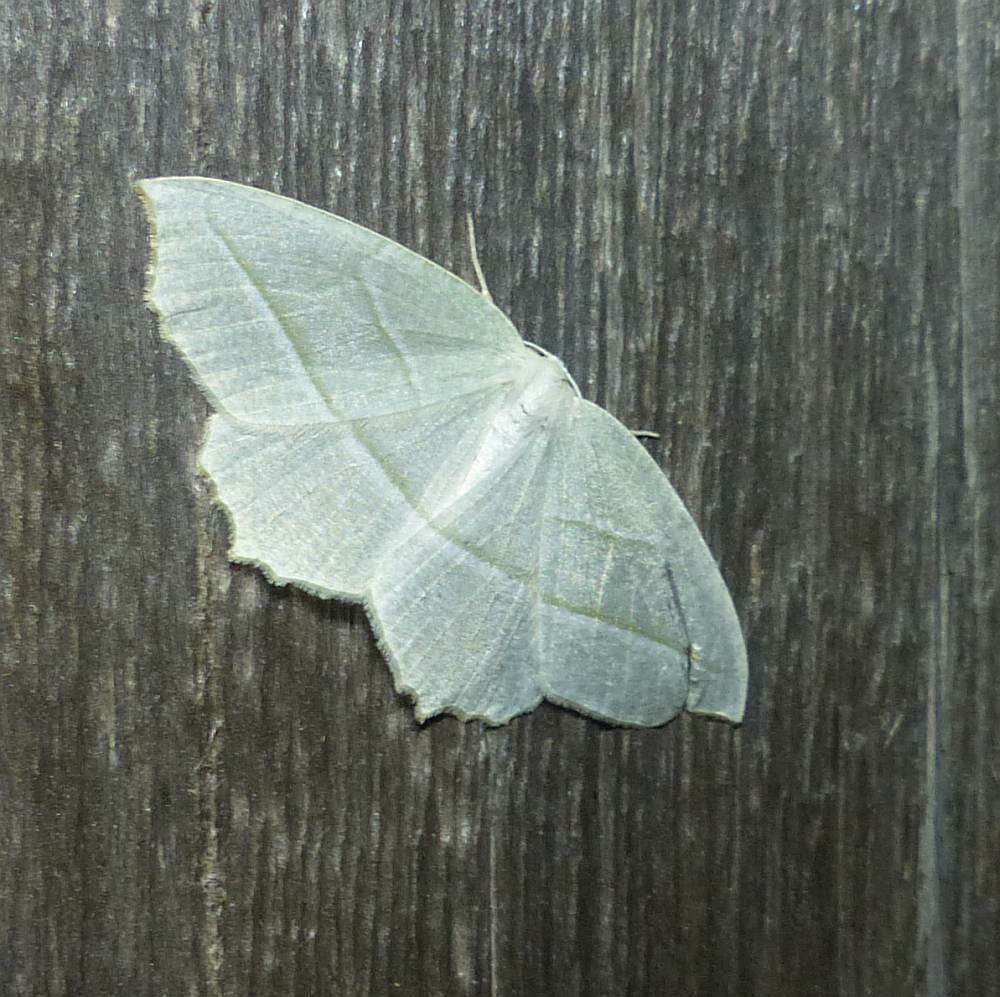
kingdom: Animalia
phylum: Arthropoda
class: Insecta
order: Lepidoptera
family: Geometridae
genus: Campaea
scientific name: Campaea perlata
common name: Fringed looper
